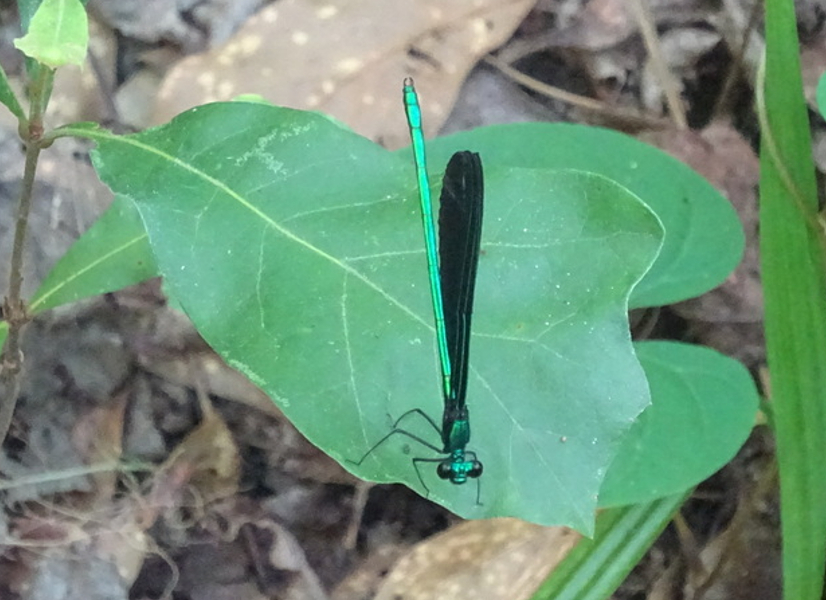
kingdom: Animalia
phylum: Arthropoda
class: Insecta
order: Odonata
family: Calopterygidae
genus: Calopteryx
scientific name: Calopteryx maculata
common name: Ebony jewelwing
